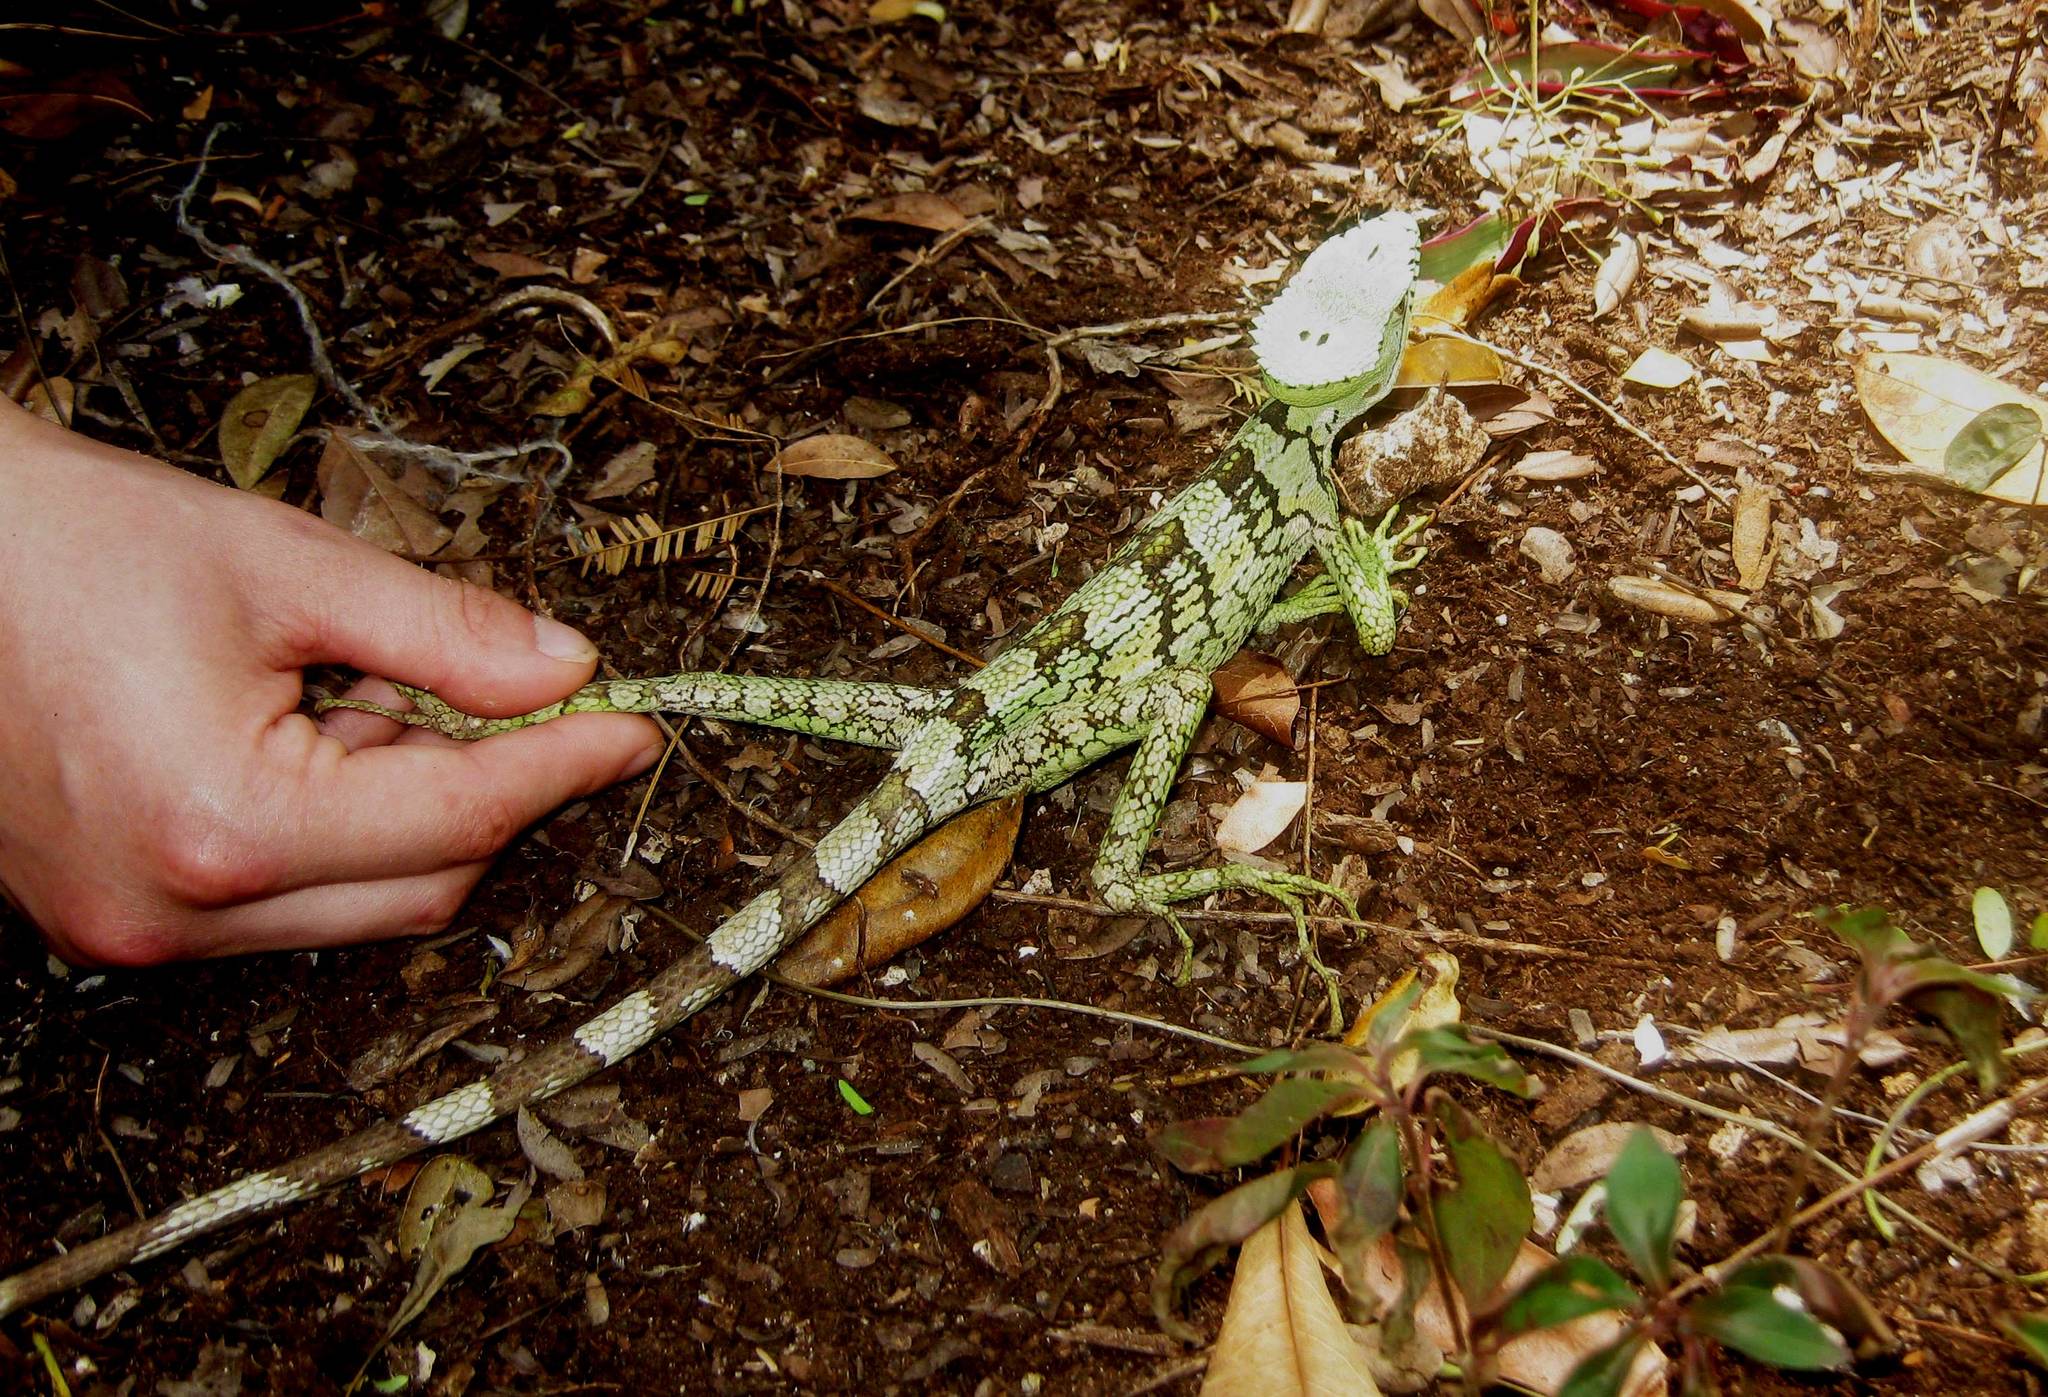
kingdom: Animalia
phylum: Chordata
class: Squamata
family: Corytophanidae
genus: Laemanctus
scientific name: Laemanctus serratus
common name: Serrated casquehead iguana
